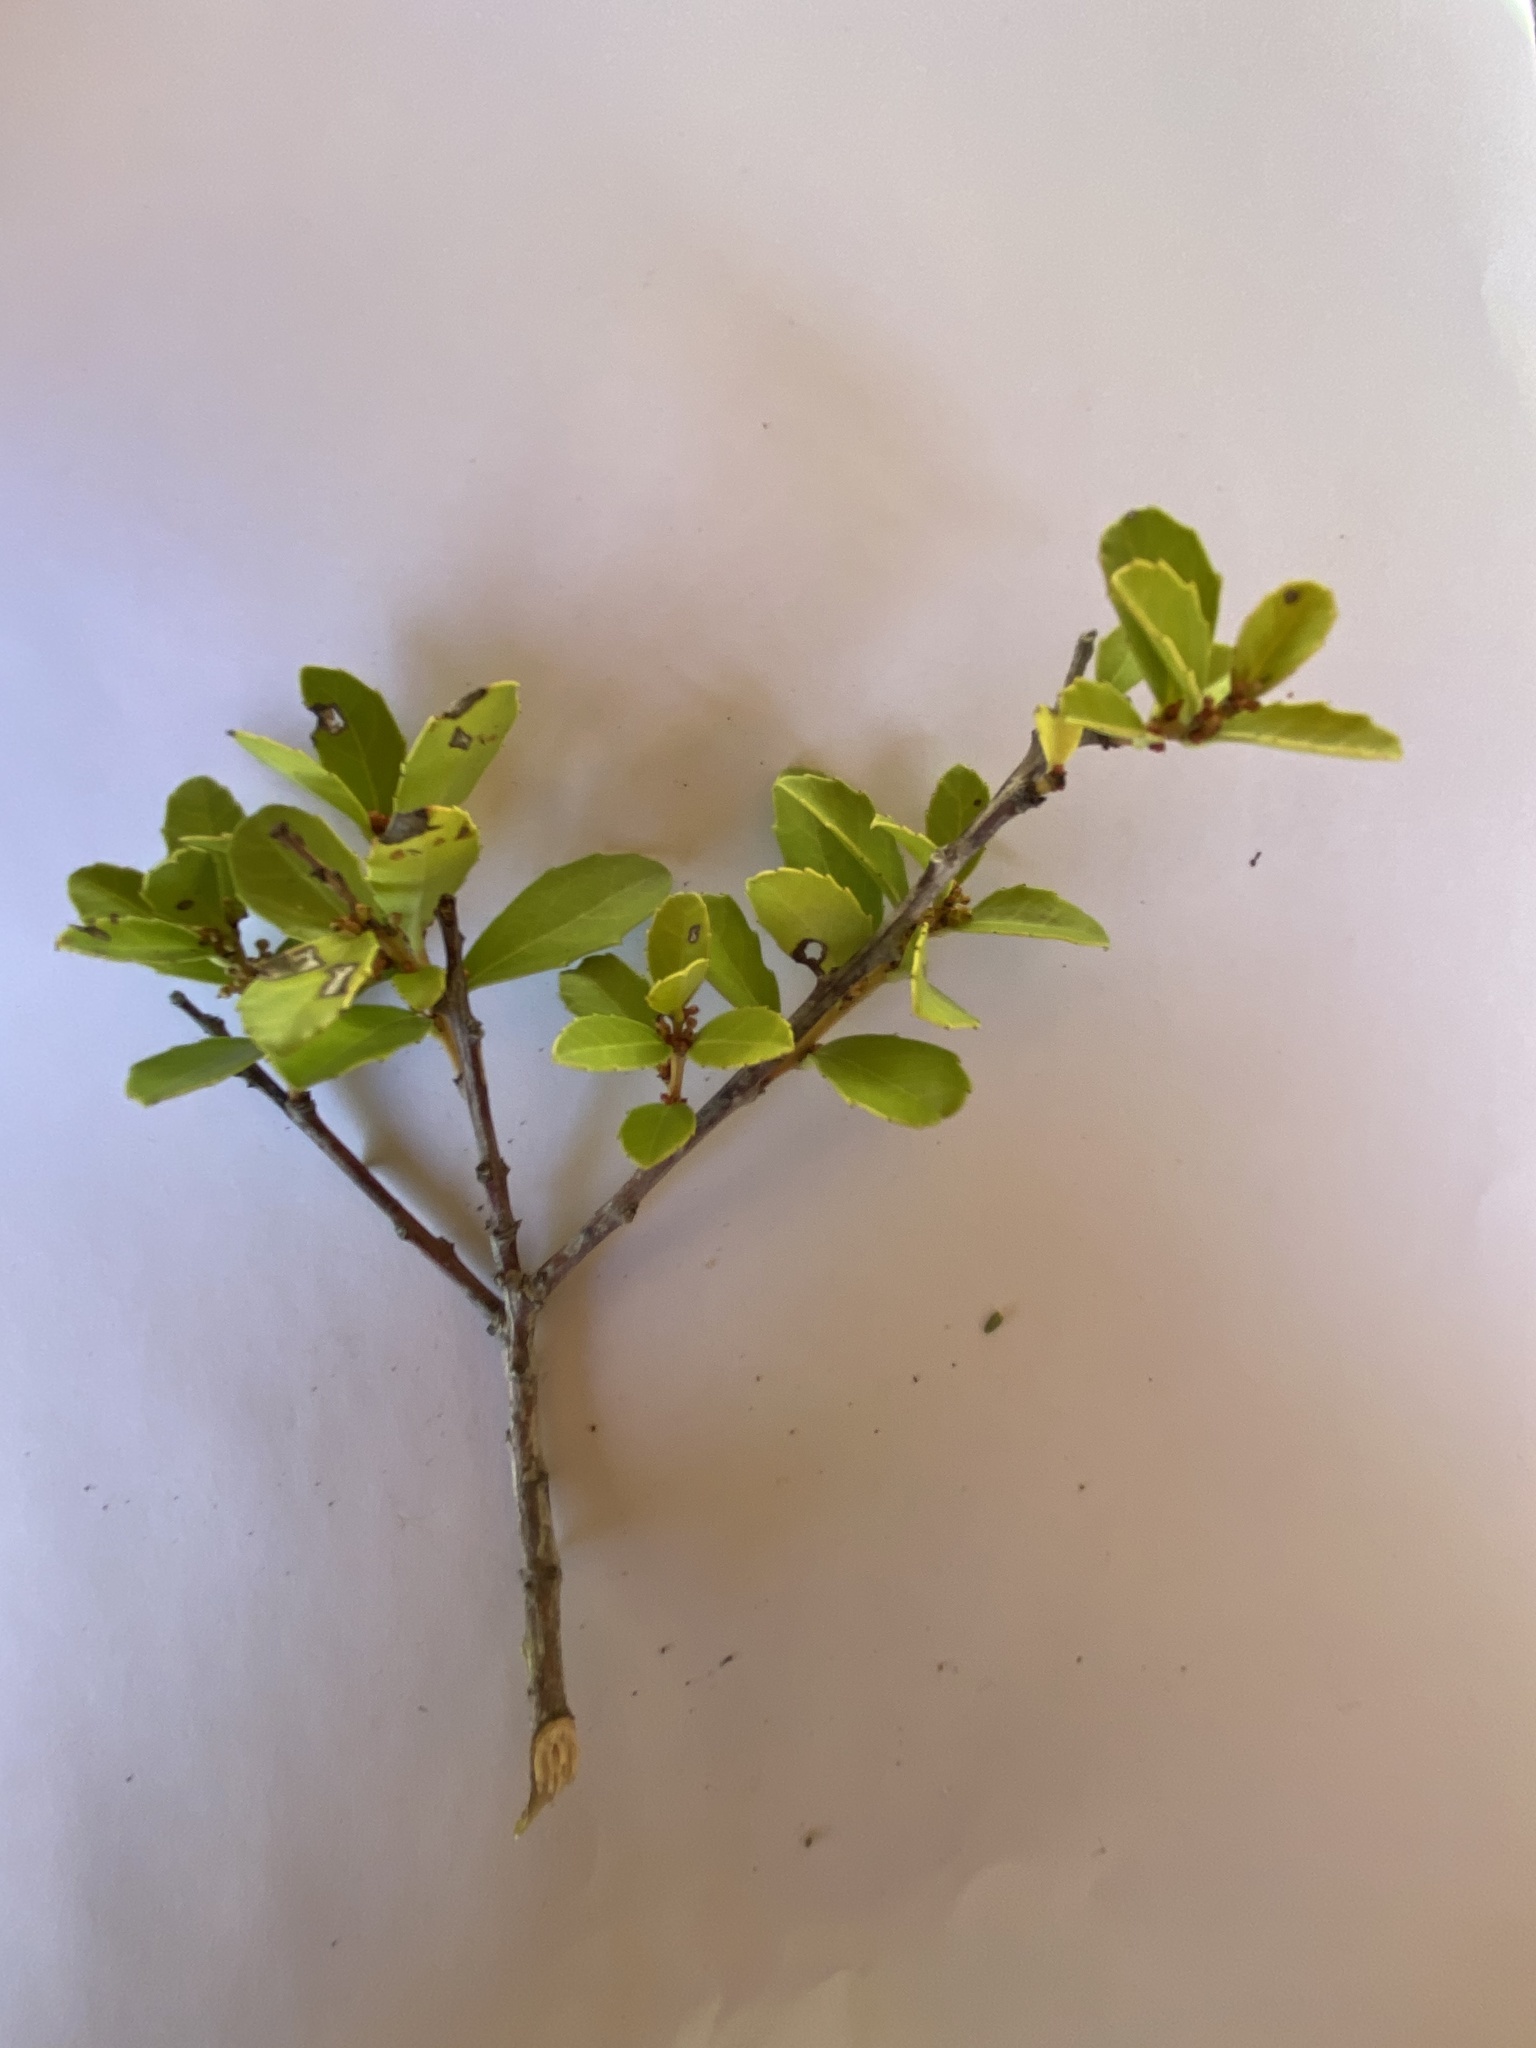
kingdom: Plantae
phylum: Tracheophyta
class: Magnoliopsida
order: Celastrales
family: Celastraceae
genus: Gymnosporia
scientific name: Gymnosporia procumbens
